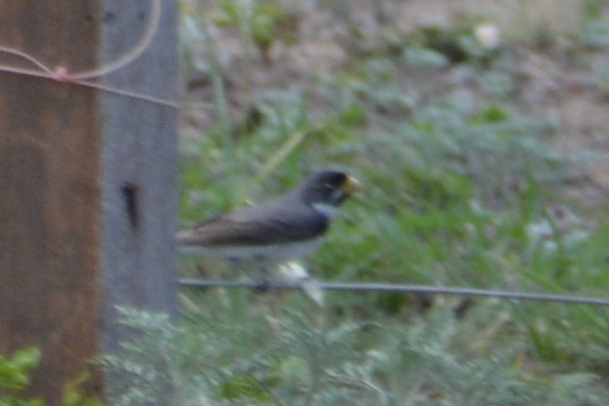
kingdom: Animalia
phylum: Chordata
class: Aves
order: Passeriformes
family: Thraupidae
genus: Sporophila
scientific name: Sporophila caerulescens
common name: Double-collared seedeater
